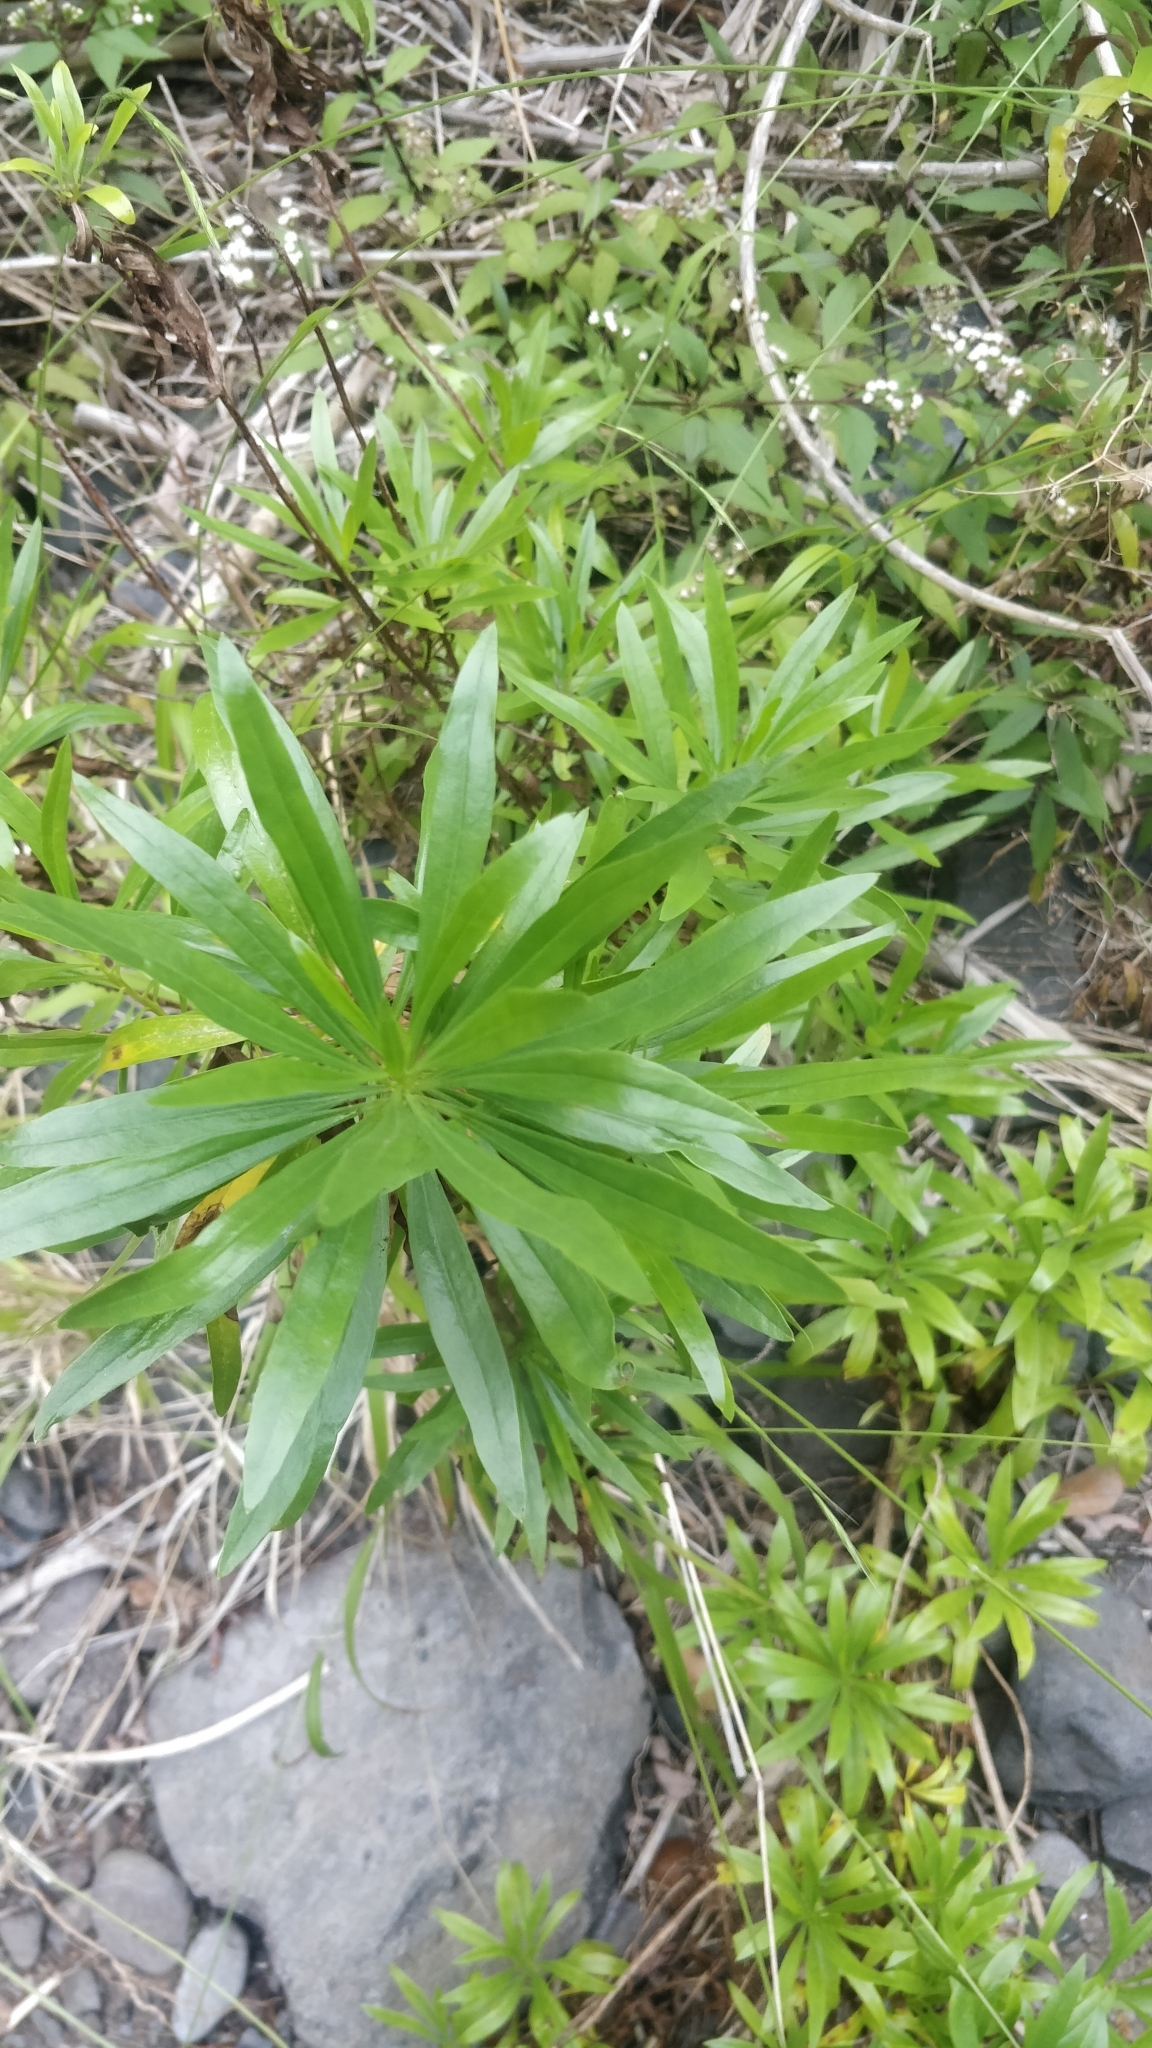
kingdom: Plantae
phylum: Tracheophyta
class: Magnoliopsida
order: Lamiales
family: Plantaginaceae
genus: Globularia
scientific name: Globularia salicina
